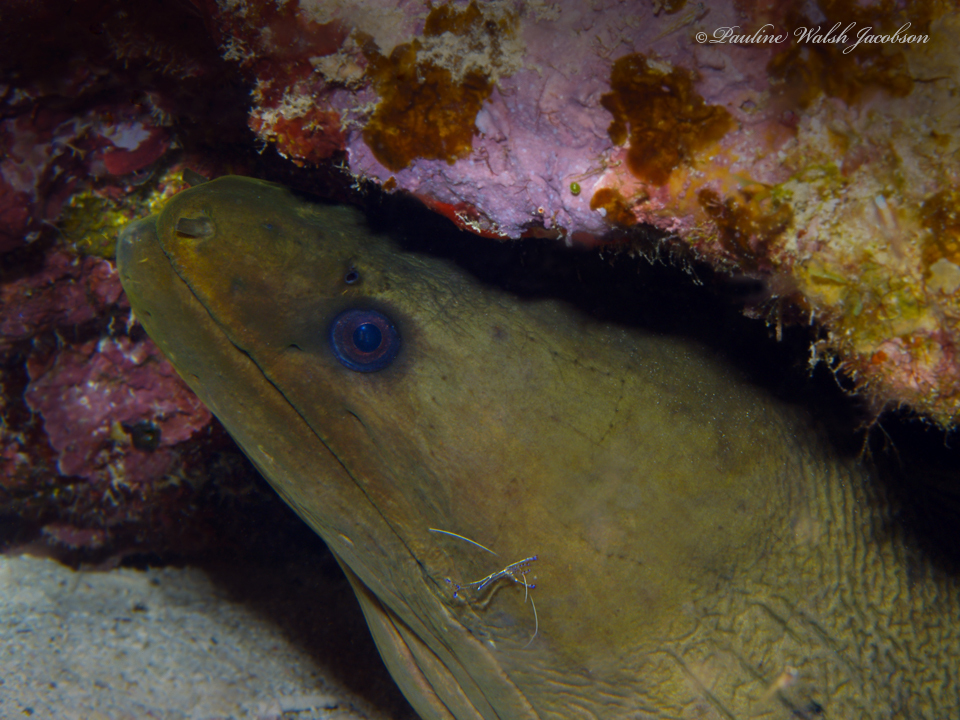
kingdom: Animalia
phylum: Chordata
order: Anguilliformes
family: Muraenidae
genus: Gymnothorax
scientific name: Gymnothorax funebris
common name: Green moray
